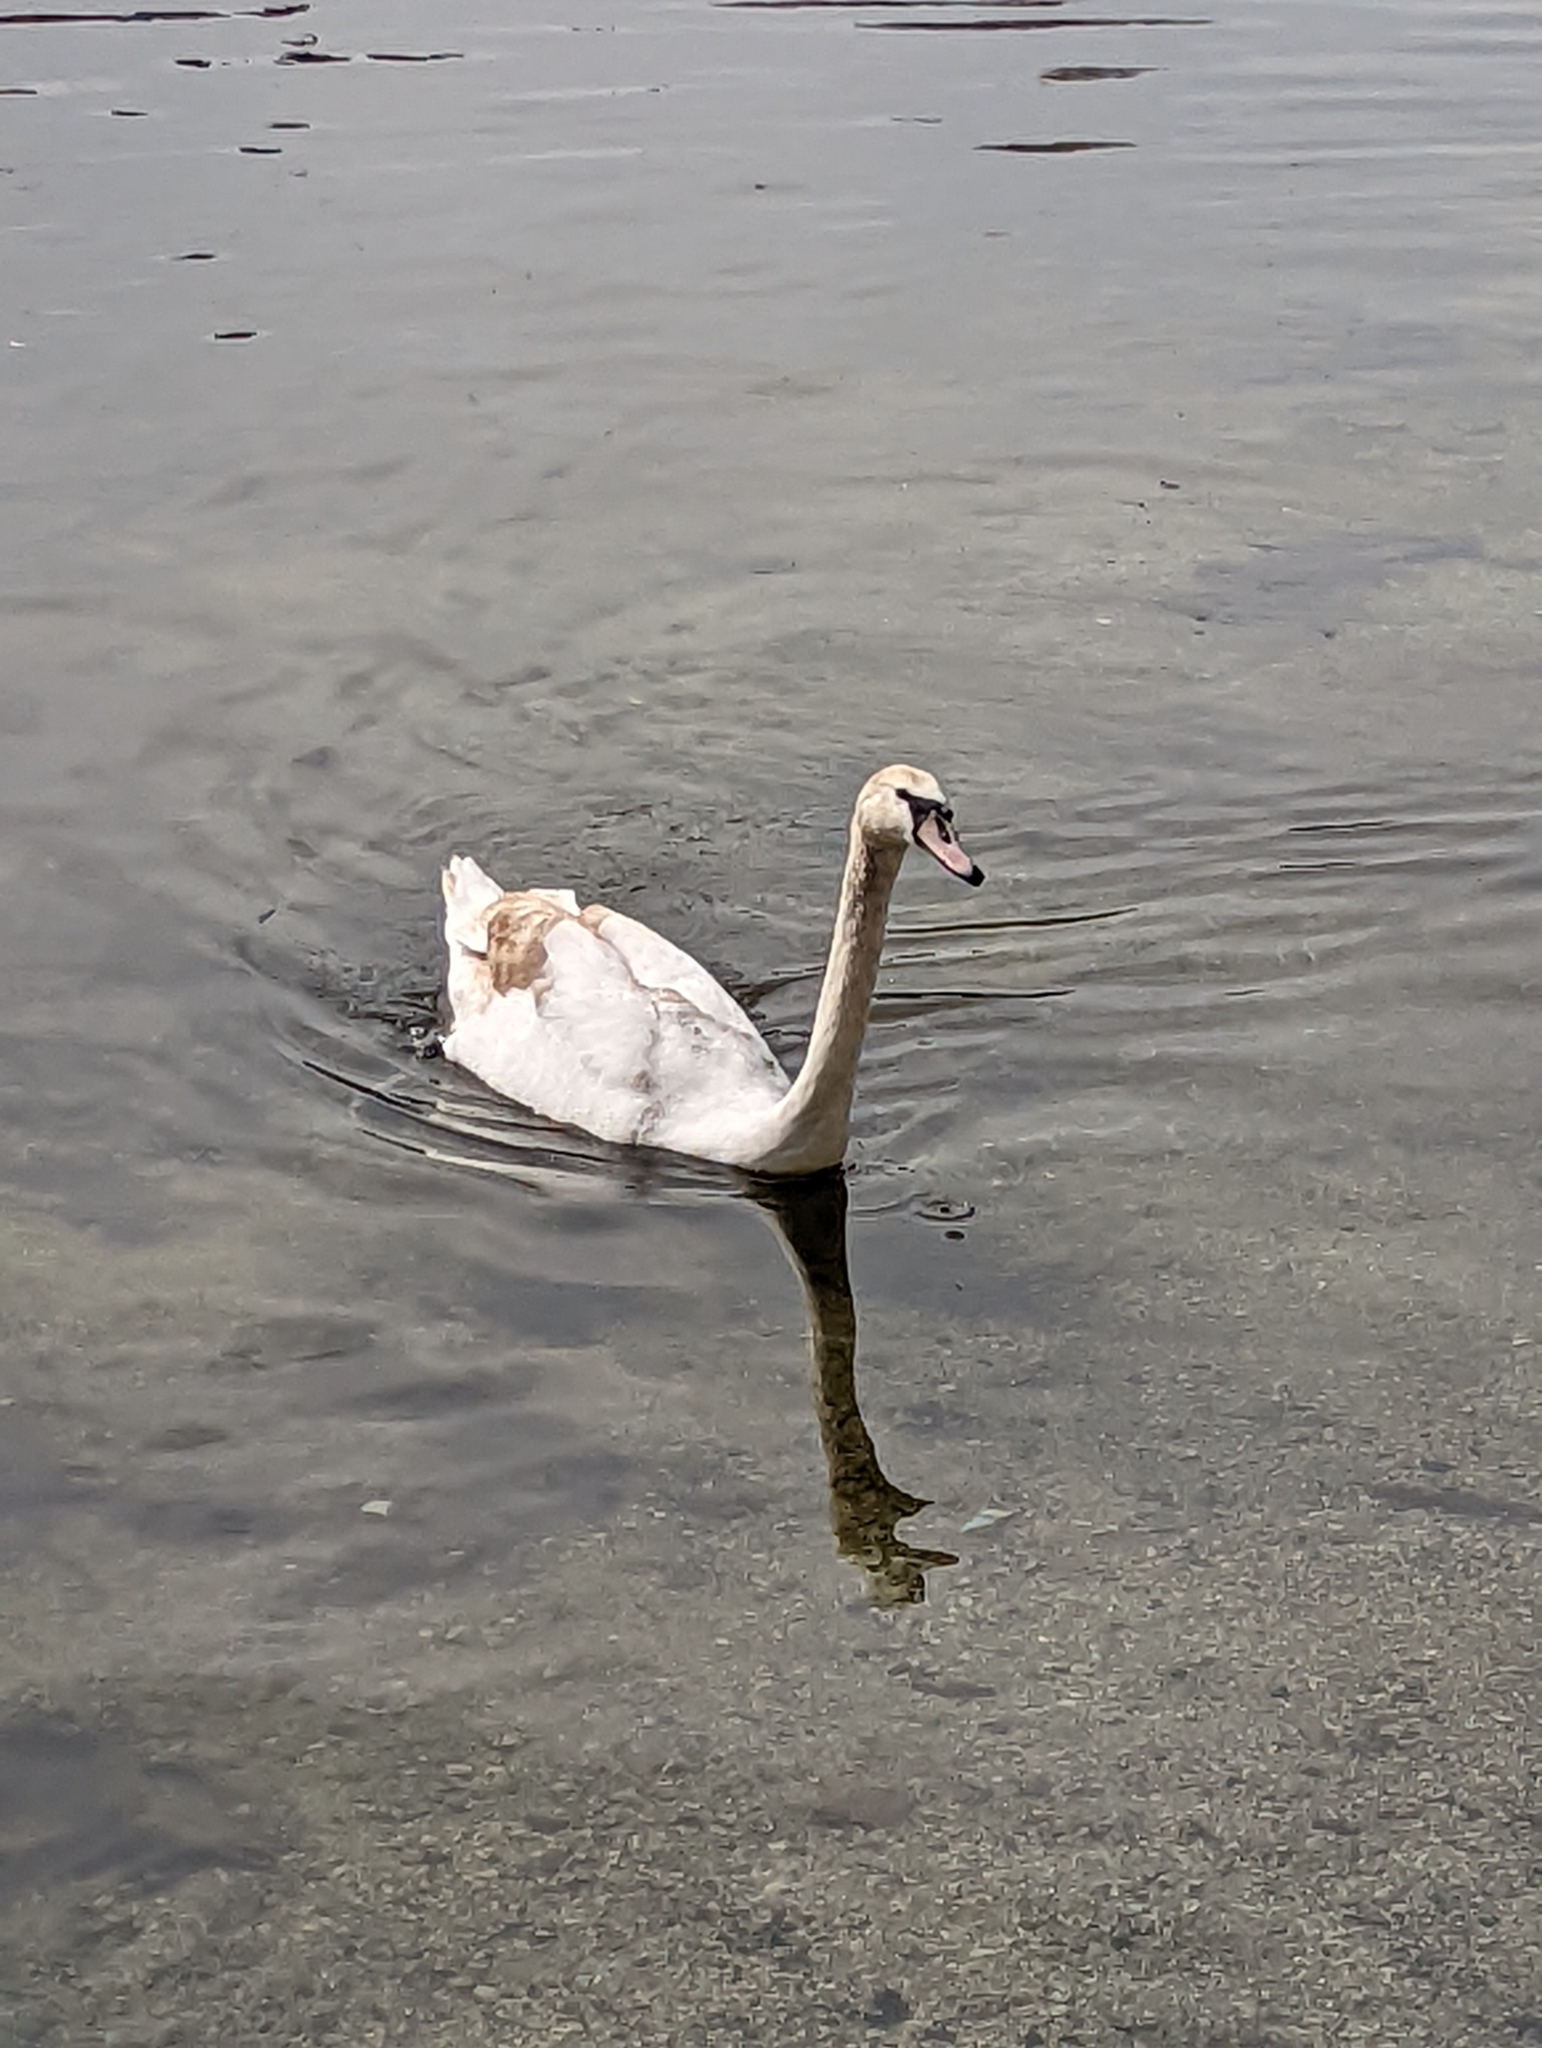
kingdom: Animalia
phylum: Chordata
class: Aves
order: Anseriformes
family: Anatidae
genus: Cygnus
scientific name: Cygnus olor
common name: Mute swan
